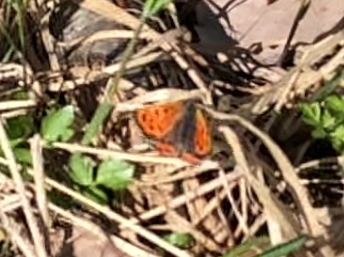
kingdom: Animalia
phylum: Arthropoda
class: Insecta
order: Lepidoptera
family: Lycaenidae
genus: Lycaena
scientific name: Lycaena phlaeas
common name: Small copper
